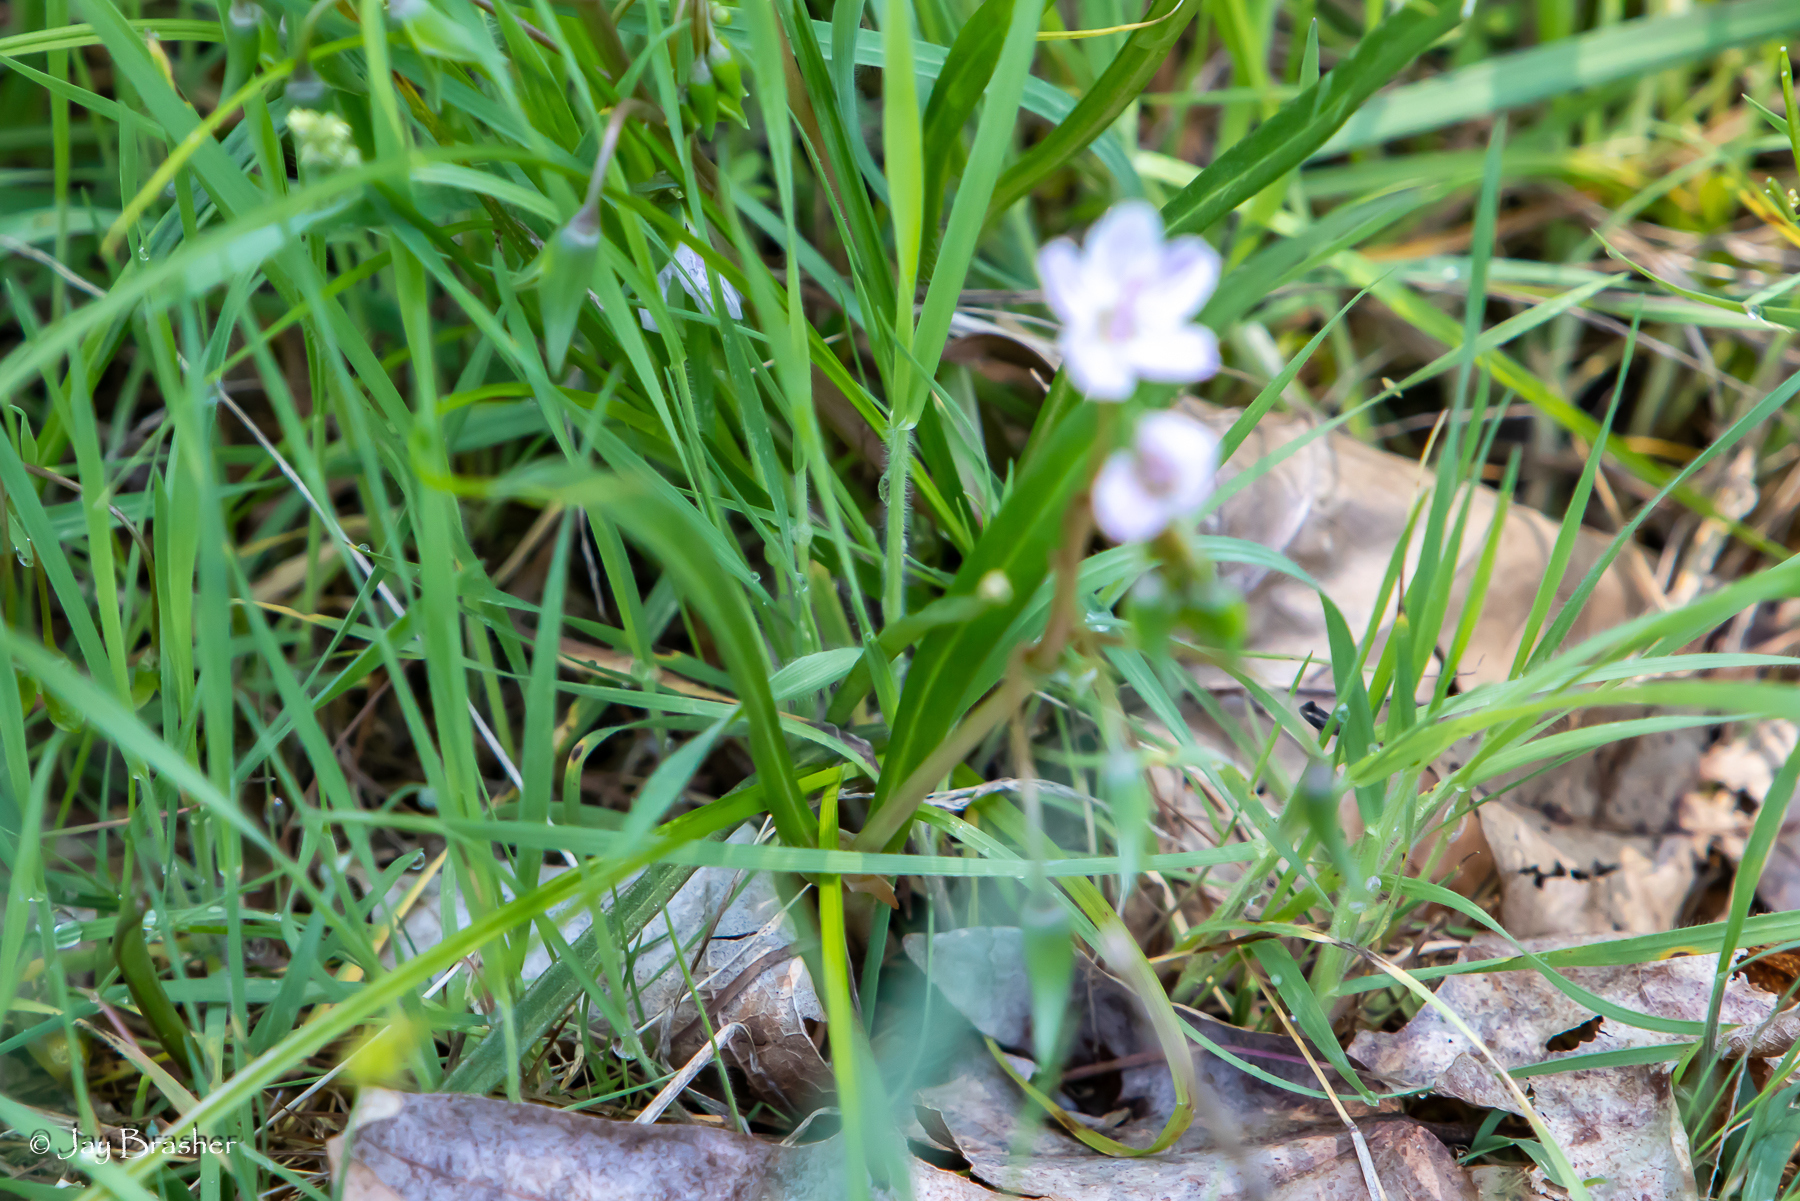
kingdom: Plantae
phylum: Tracheophyta
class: Magnoliopsida
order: Caryophyllales
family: Montiaceae
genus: Claytonia
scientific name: Claytonia virginica
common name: Virginia springbeauty
